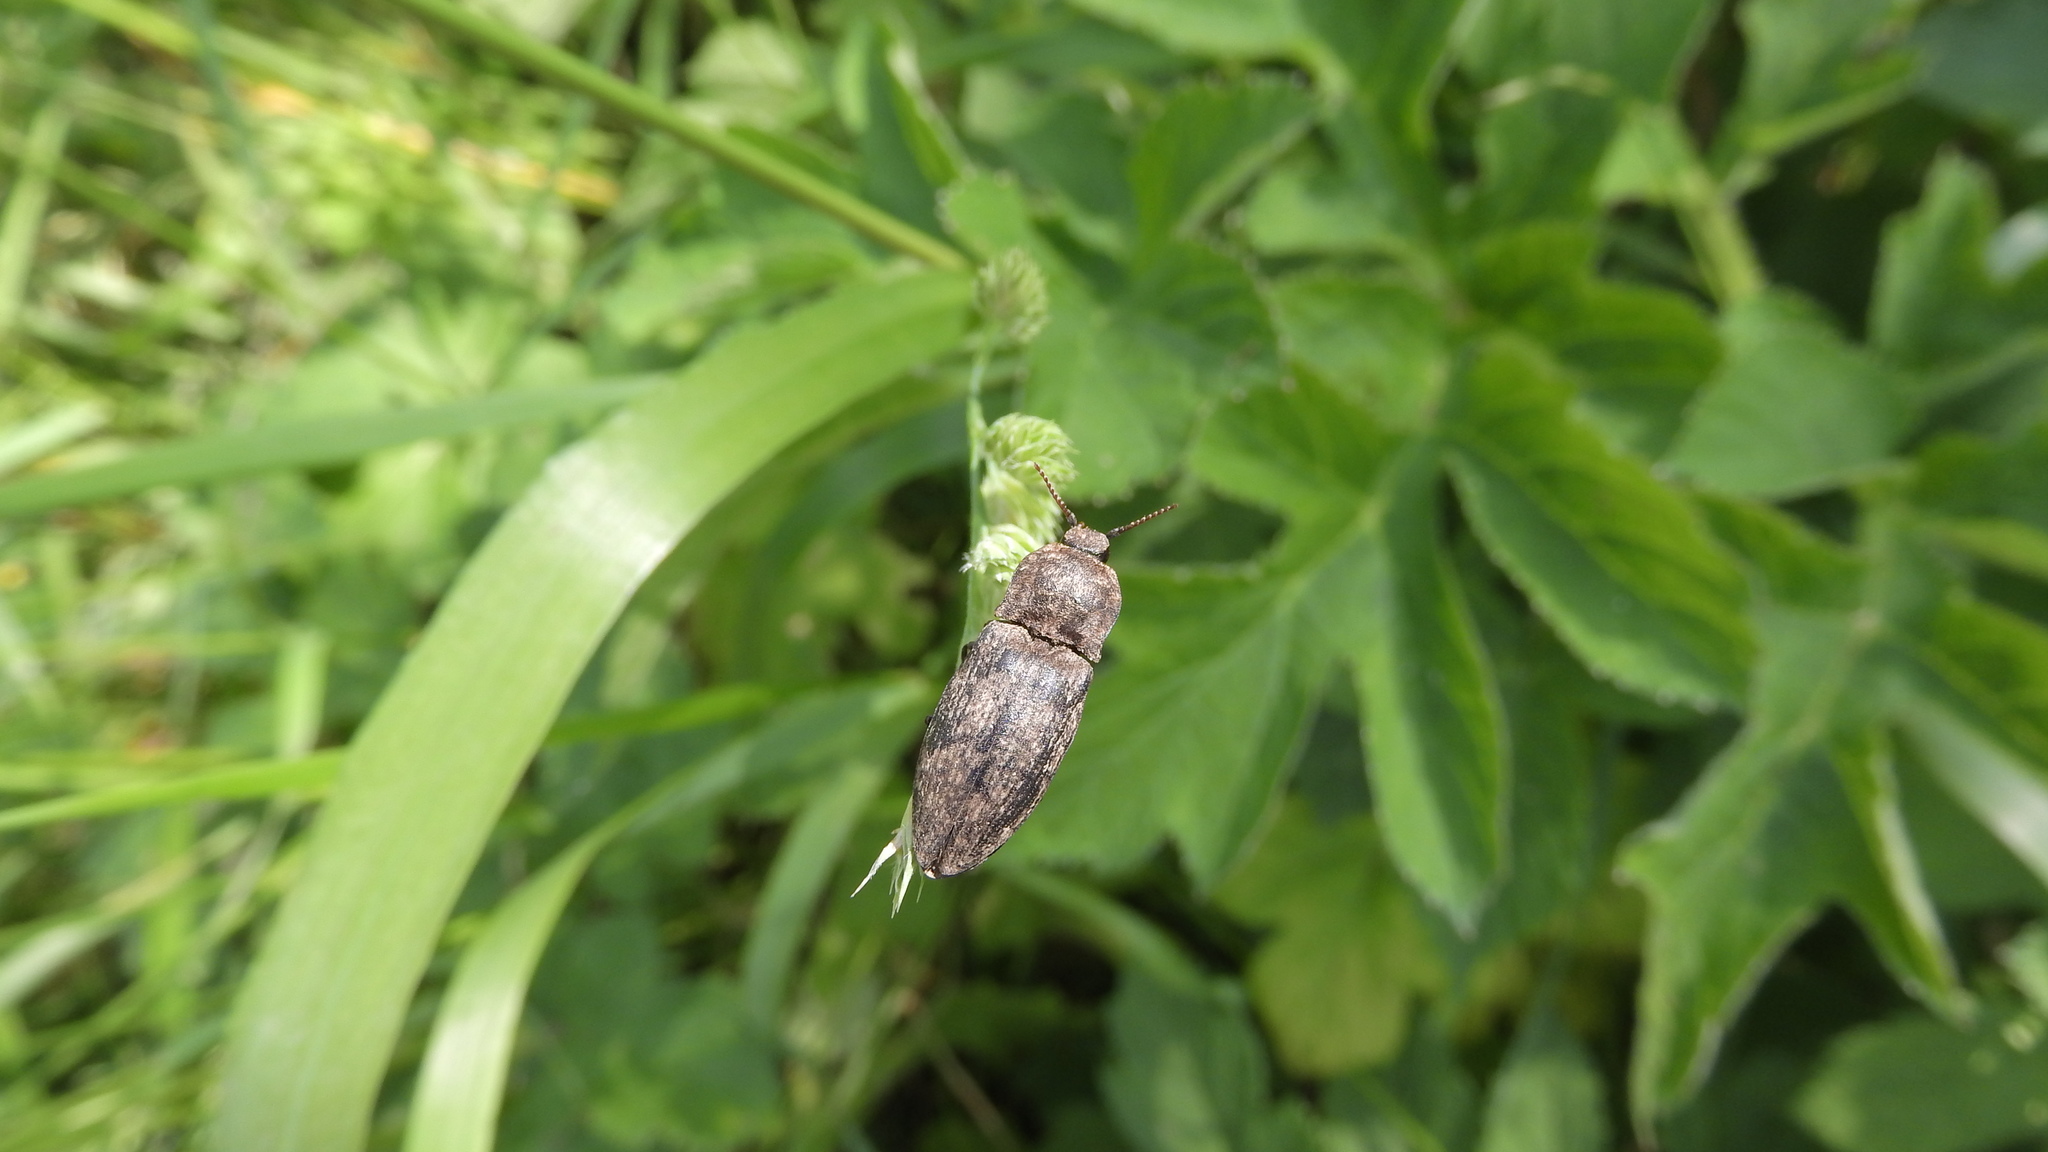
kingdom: Animalia
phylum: Arthropoda
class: Insecta
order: Coleoptera
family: Elateridae
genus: Agrypnus
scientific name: Agrypnus murinus
